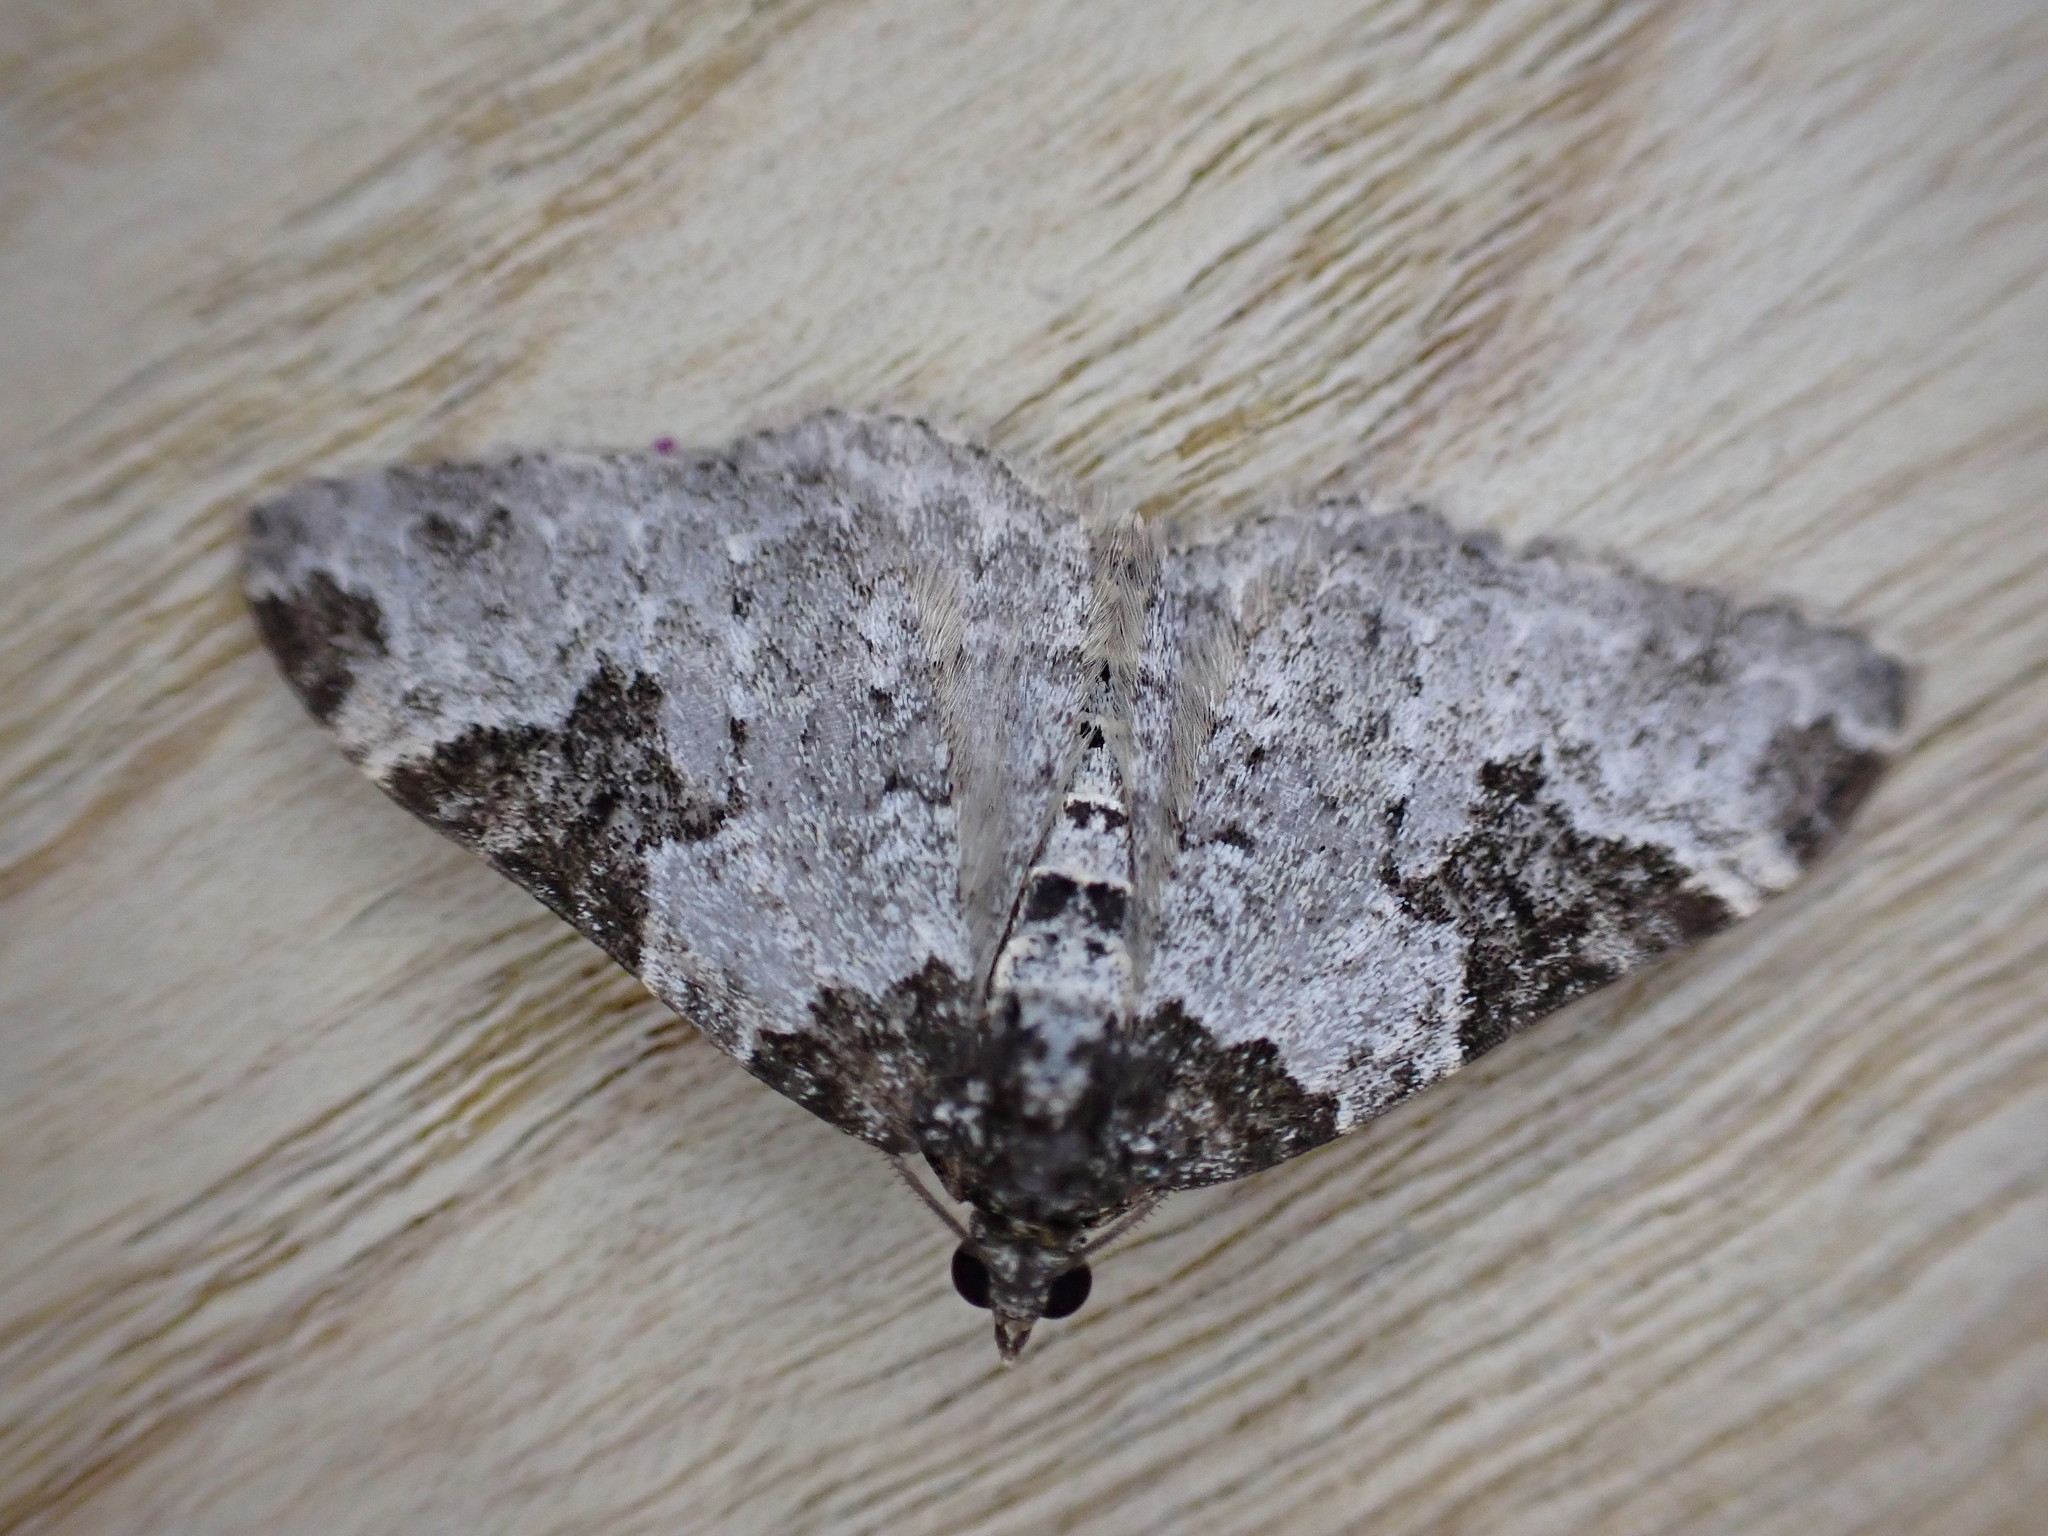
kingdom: Animalia
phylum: Arthropoda
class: Insecta
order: Lepidoptera
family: Geometridae
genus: Xanthorhoe
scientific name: Xanthorhoe fluctuata
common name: Garden carpet
